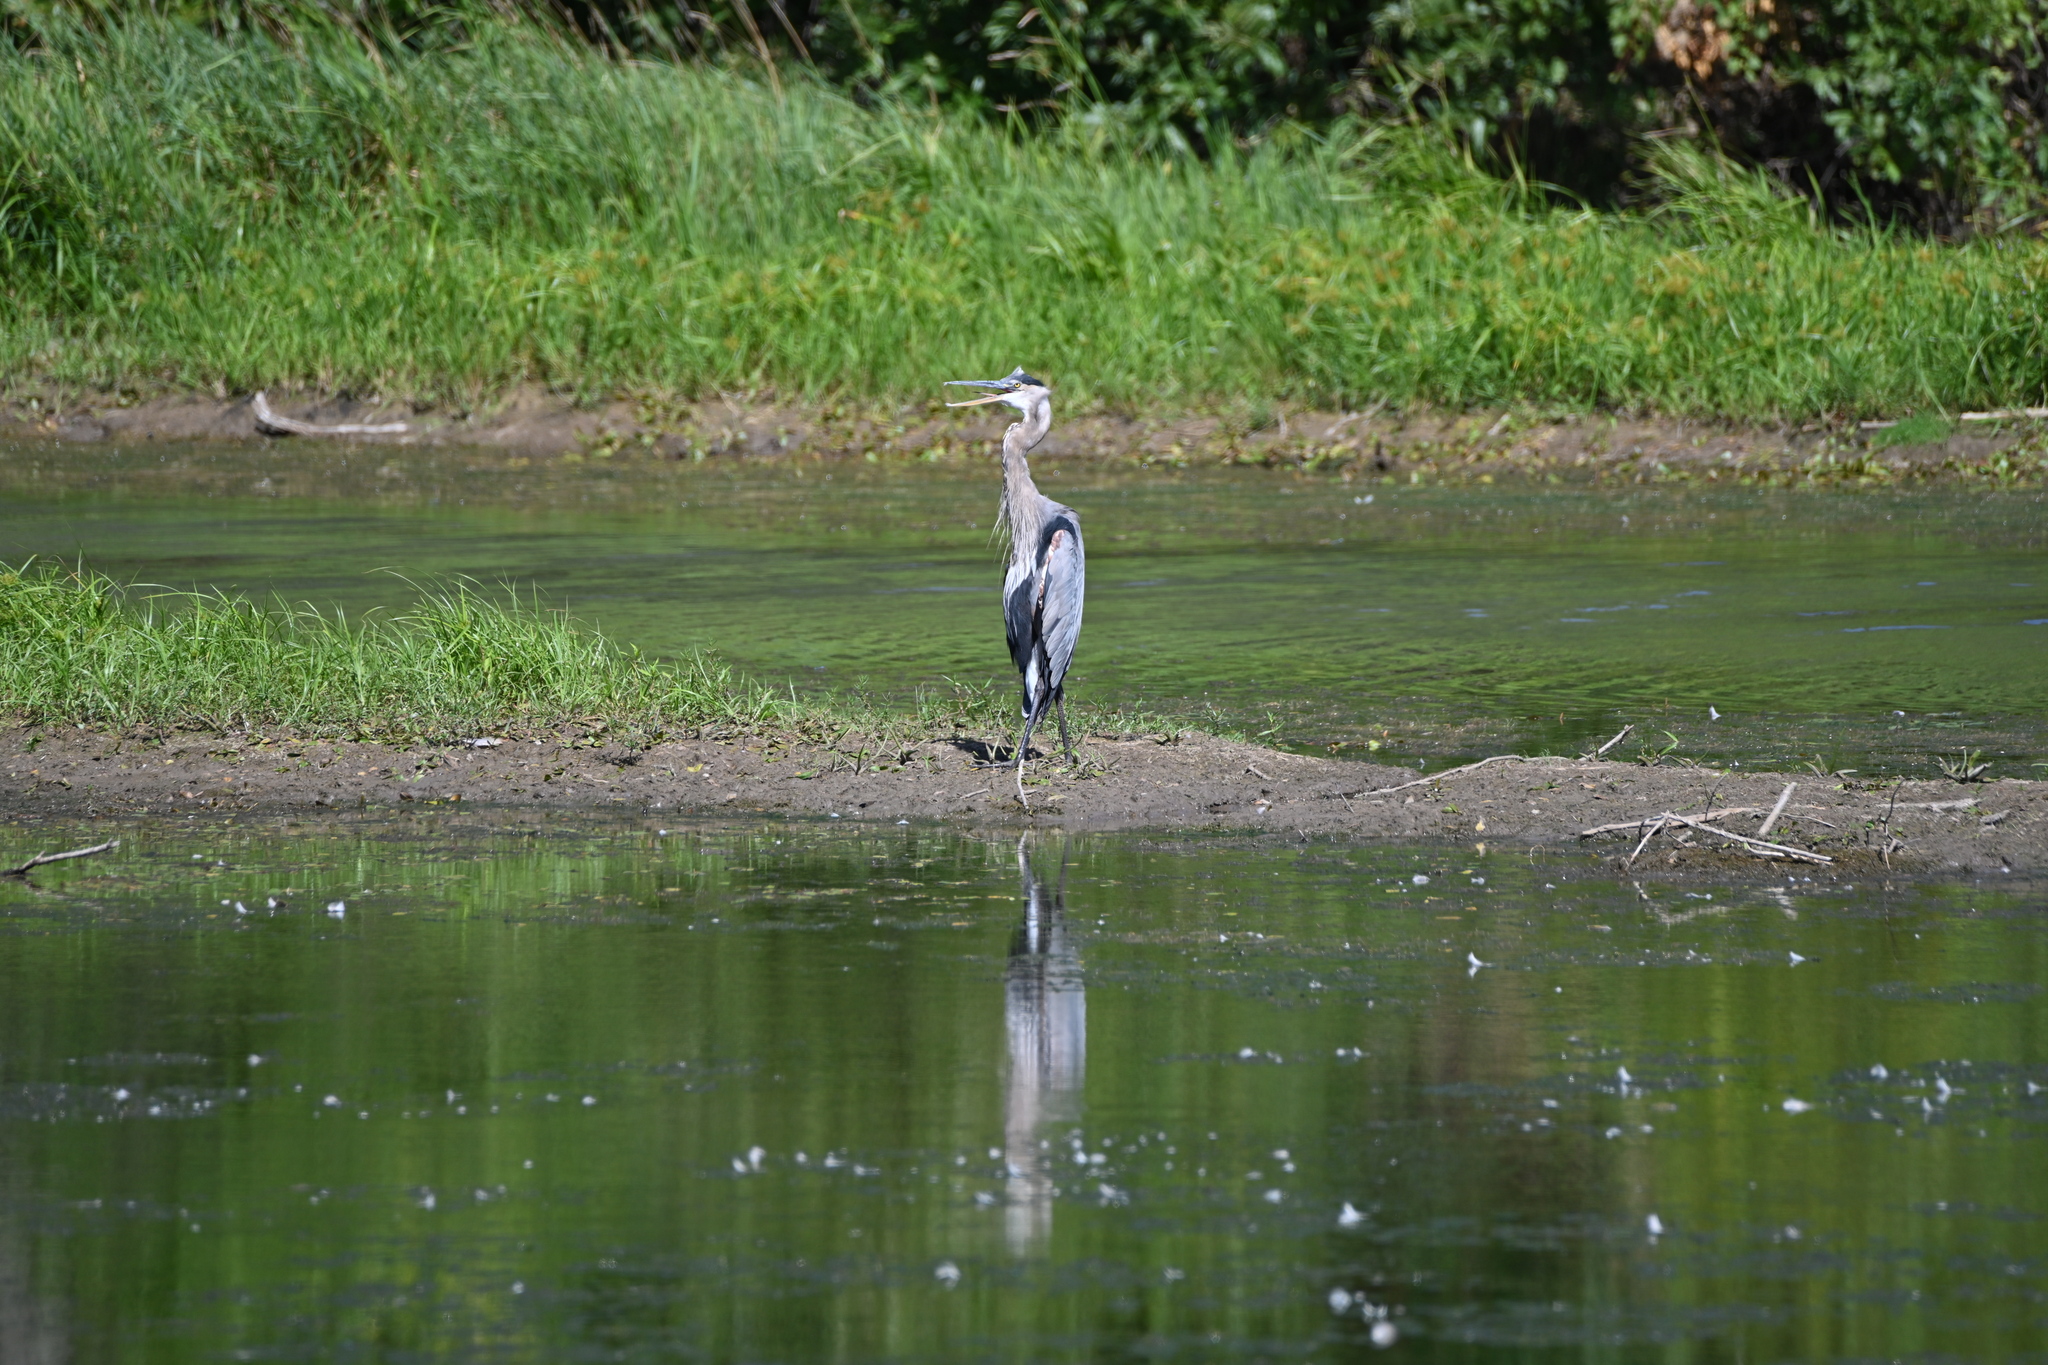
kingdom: Animalia
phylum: Chordata
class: Aves
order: Pelecaniformes
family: Ardeidae
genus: Ardea
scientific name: Ardea herodias
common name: Great blue heron
